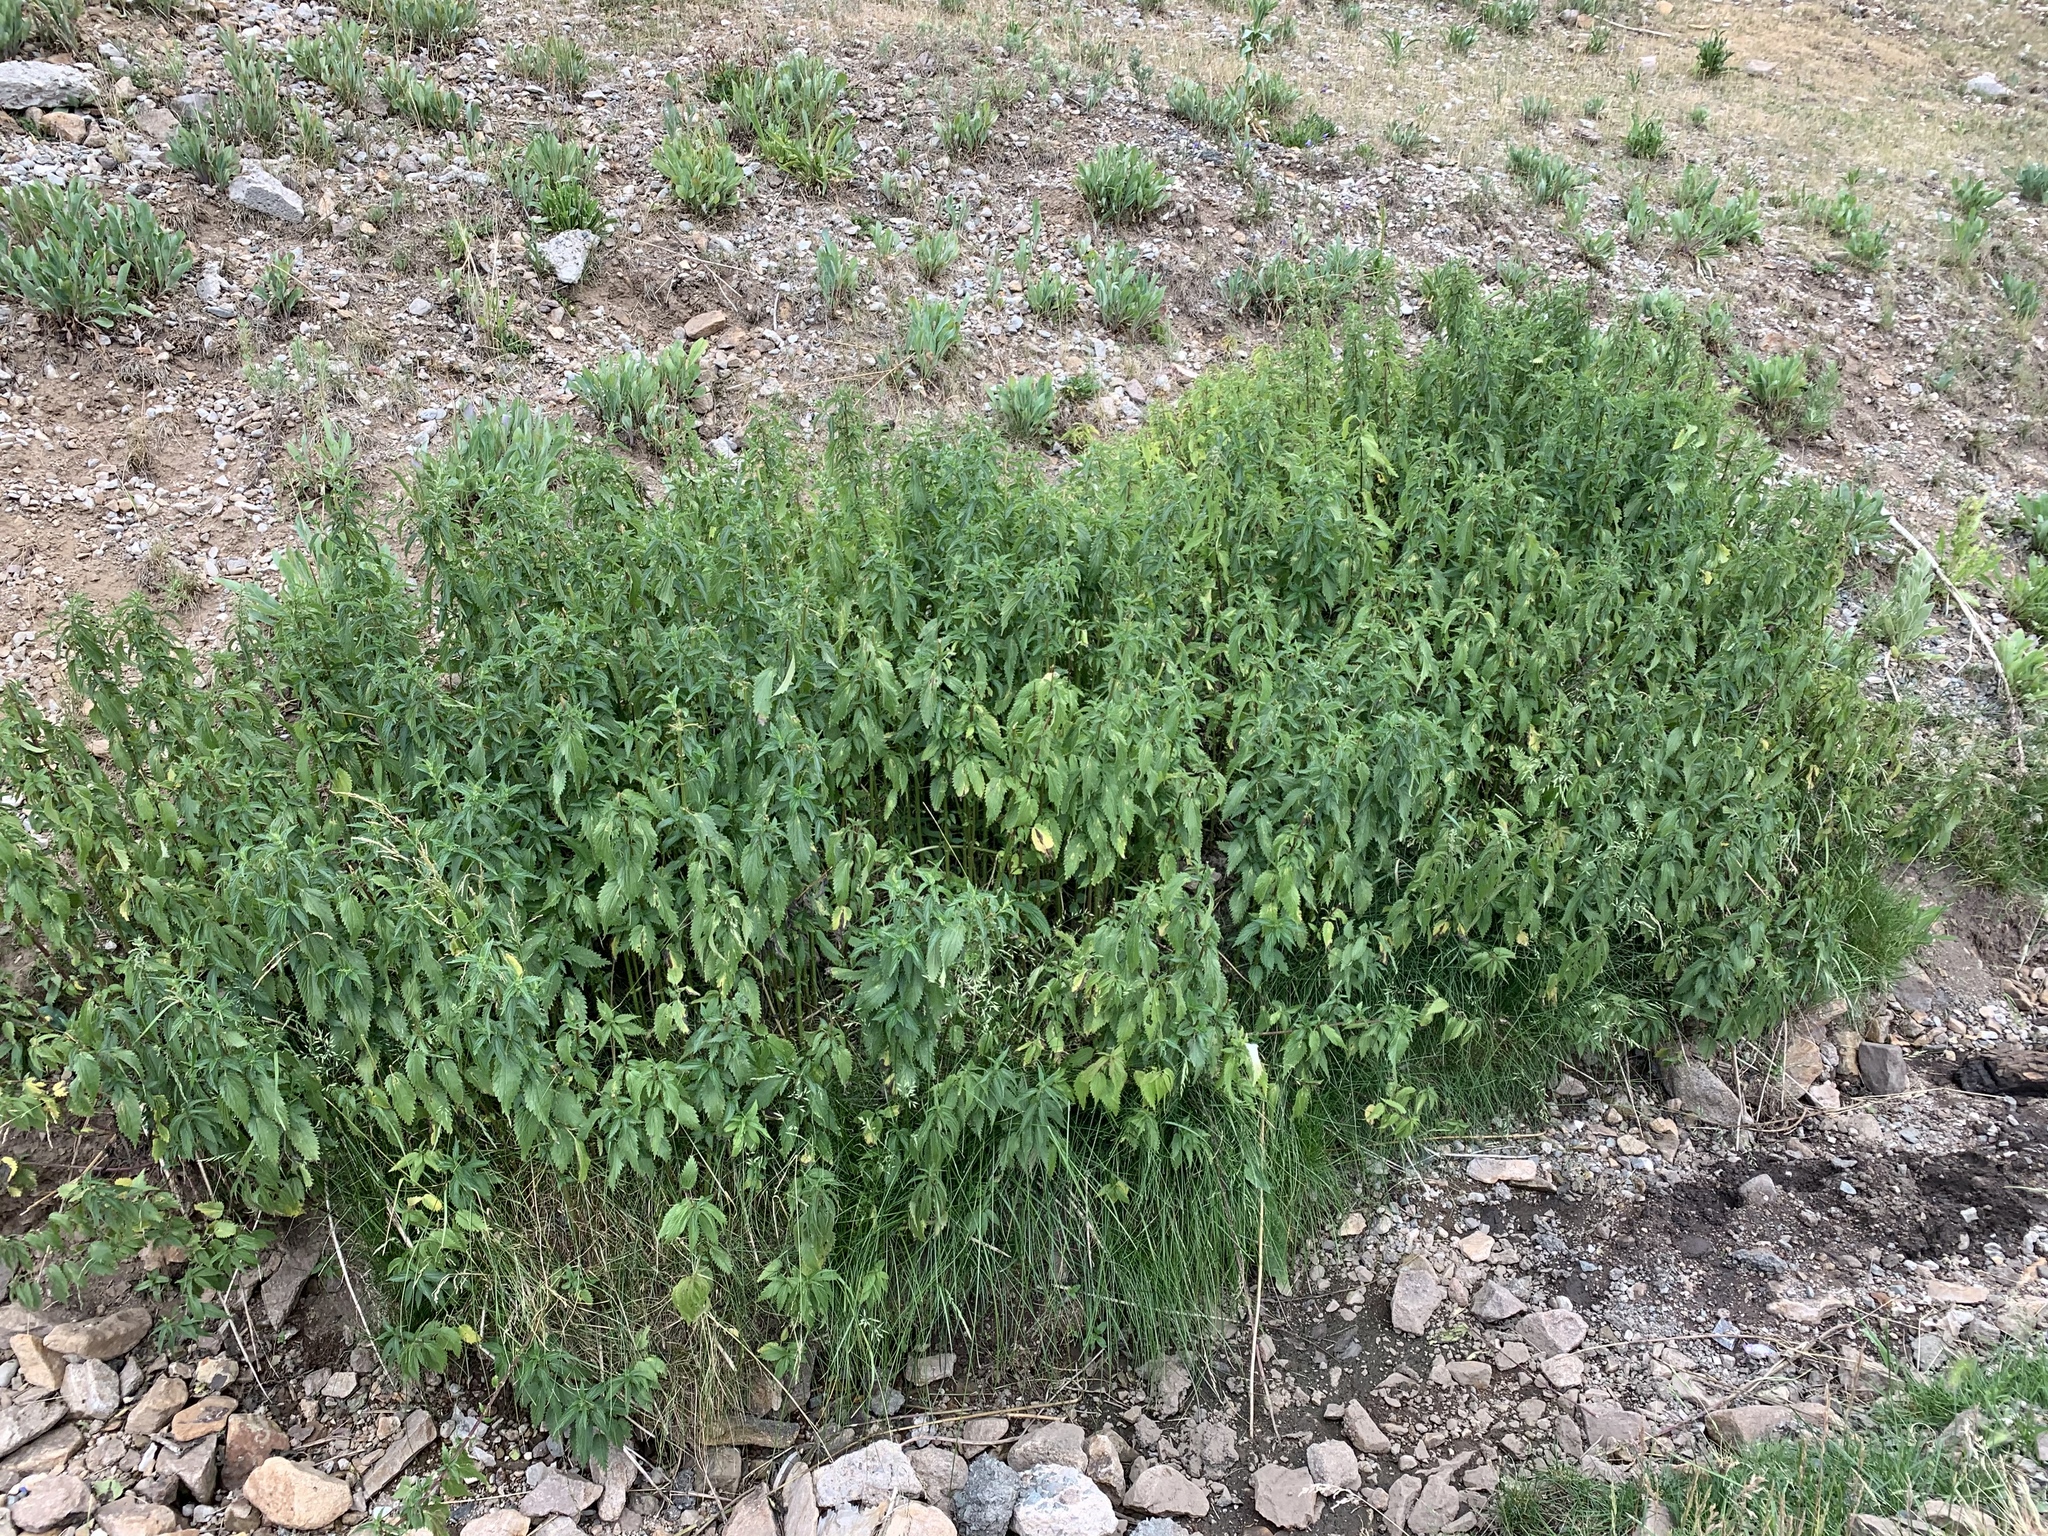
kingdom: Plantae
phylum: Tracheophyta
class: Magnoliopsida
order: Rosales
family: Urticaceae
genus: Urtica
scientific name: Urtica gracilis
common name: Slender stinging nettle
